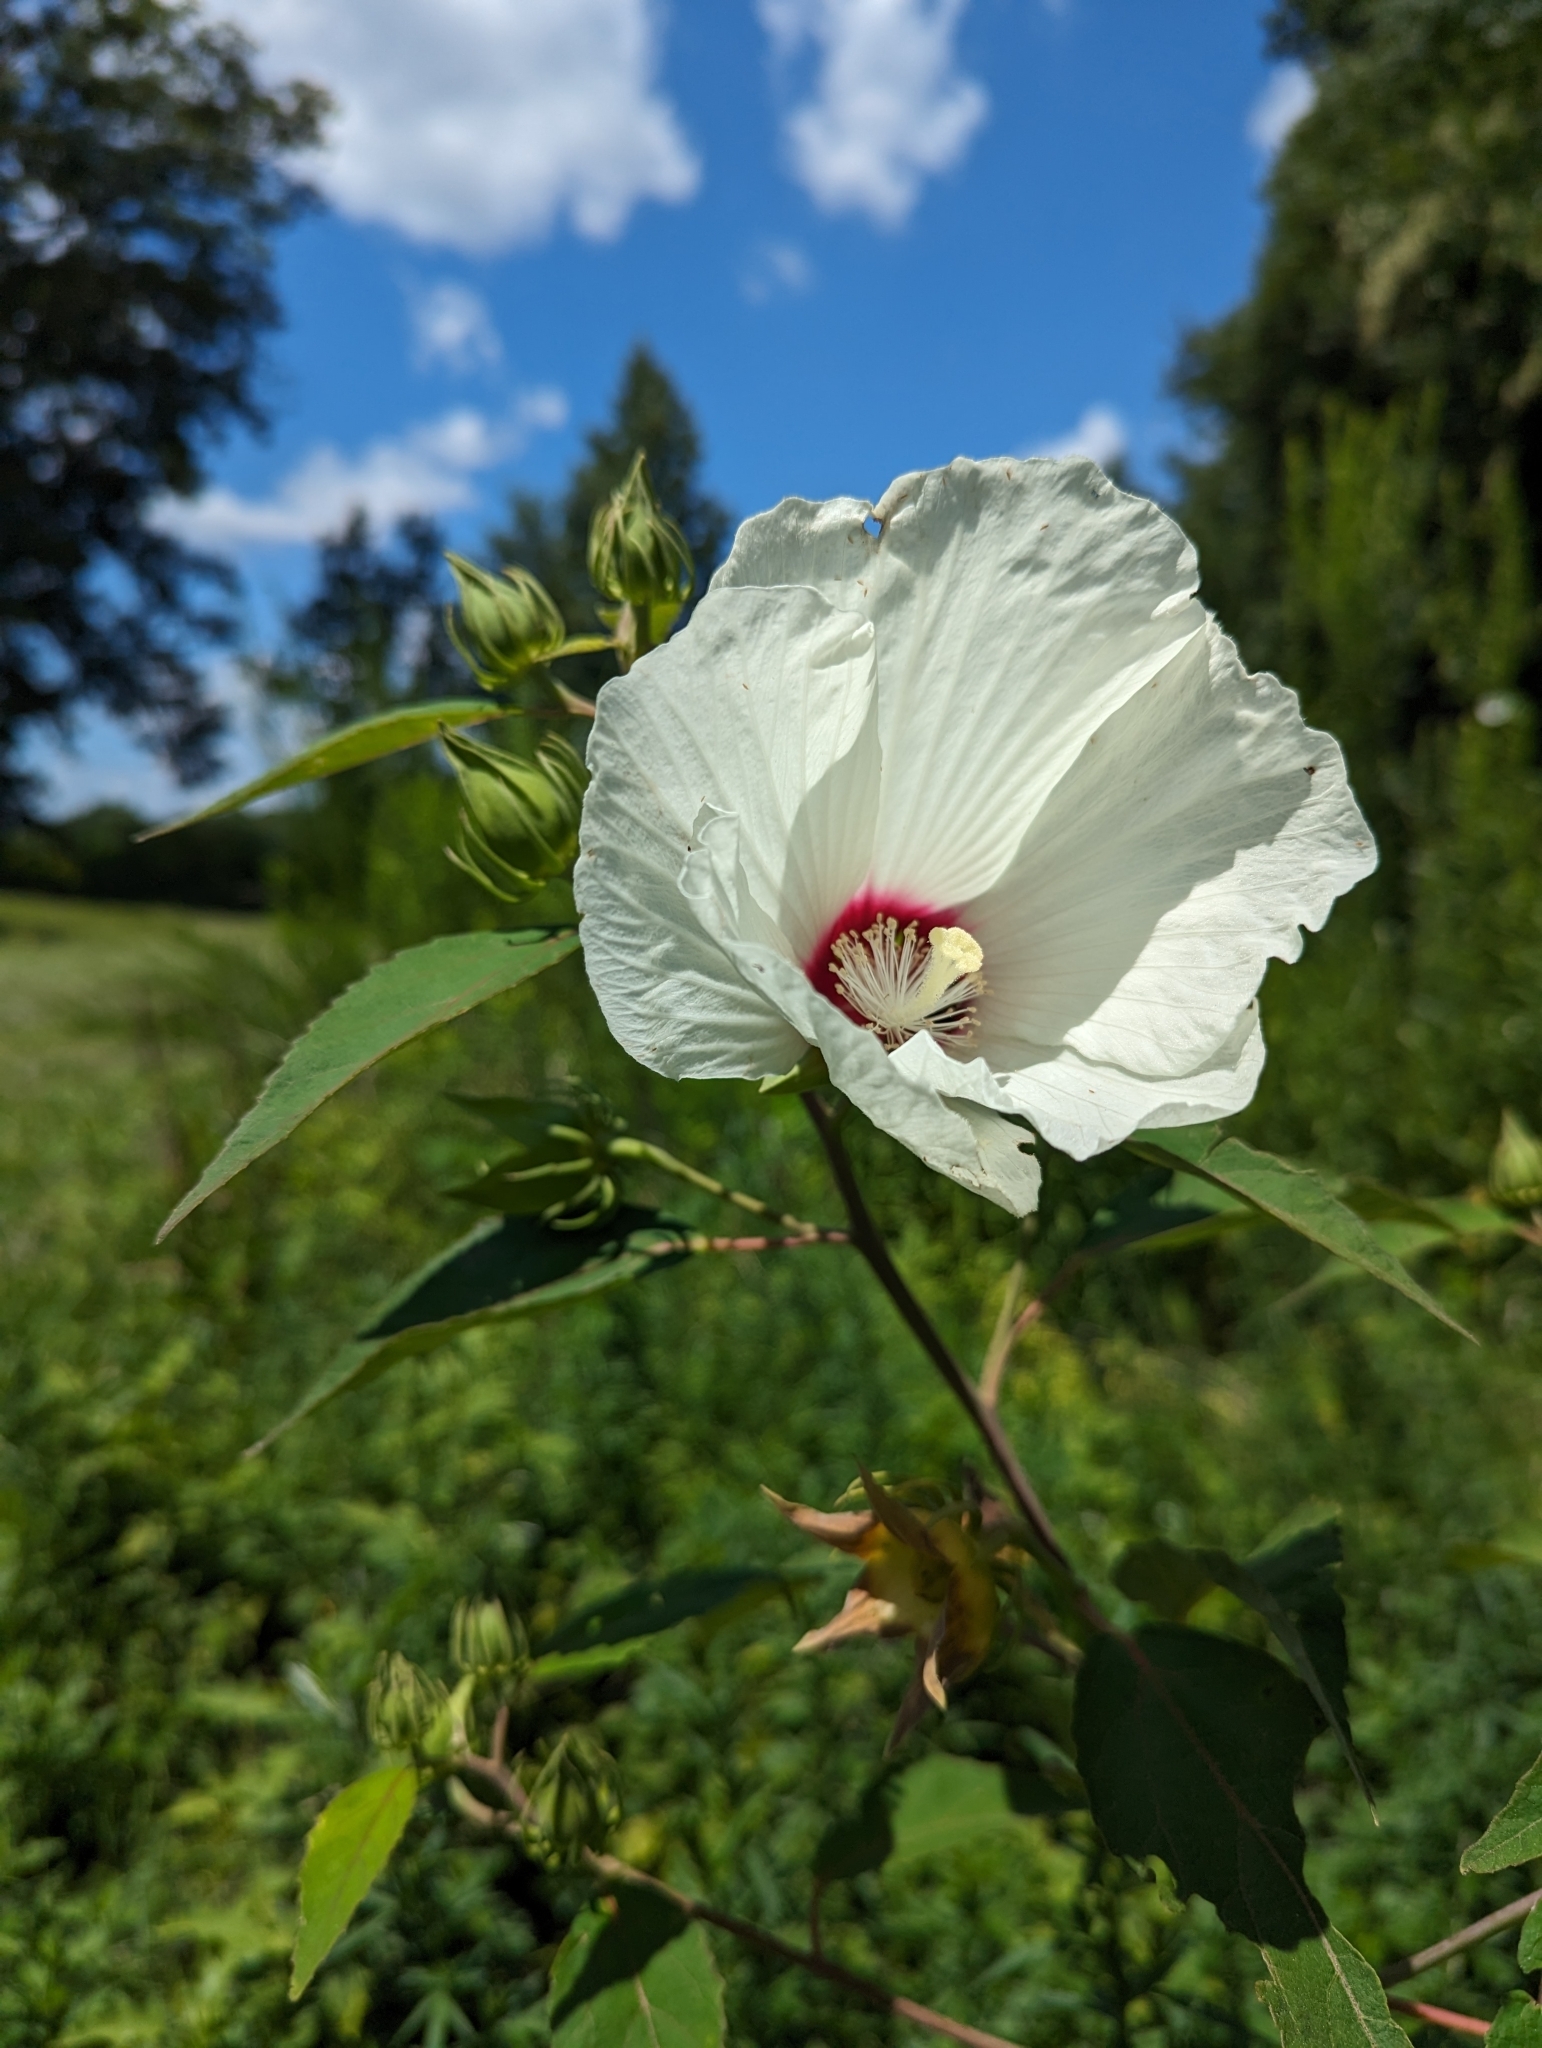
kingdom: Plantae
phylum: Tracheophyta
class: Magnoliopsida
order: Malvales
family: Malvaceae
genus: Hibiscus
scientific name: Hibiscus moscheutos
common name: Common rose-mallow
